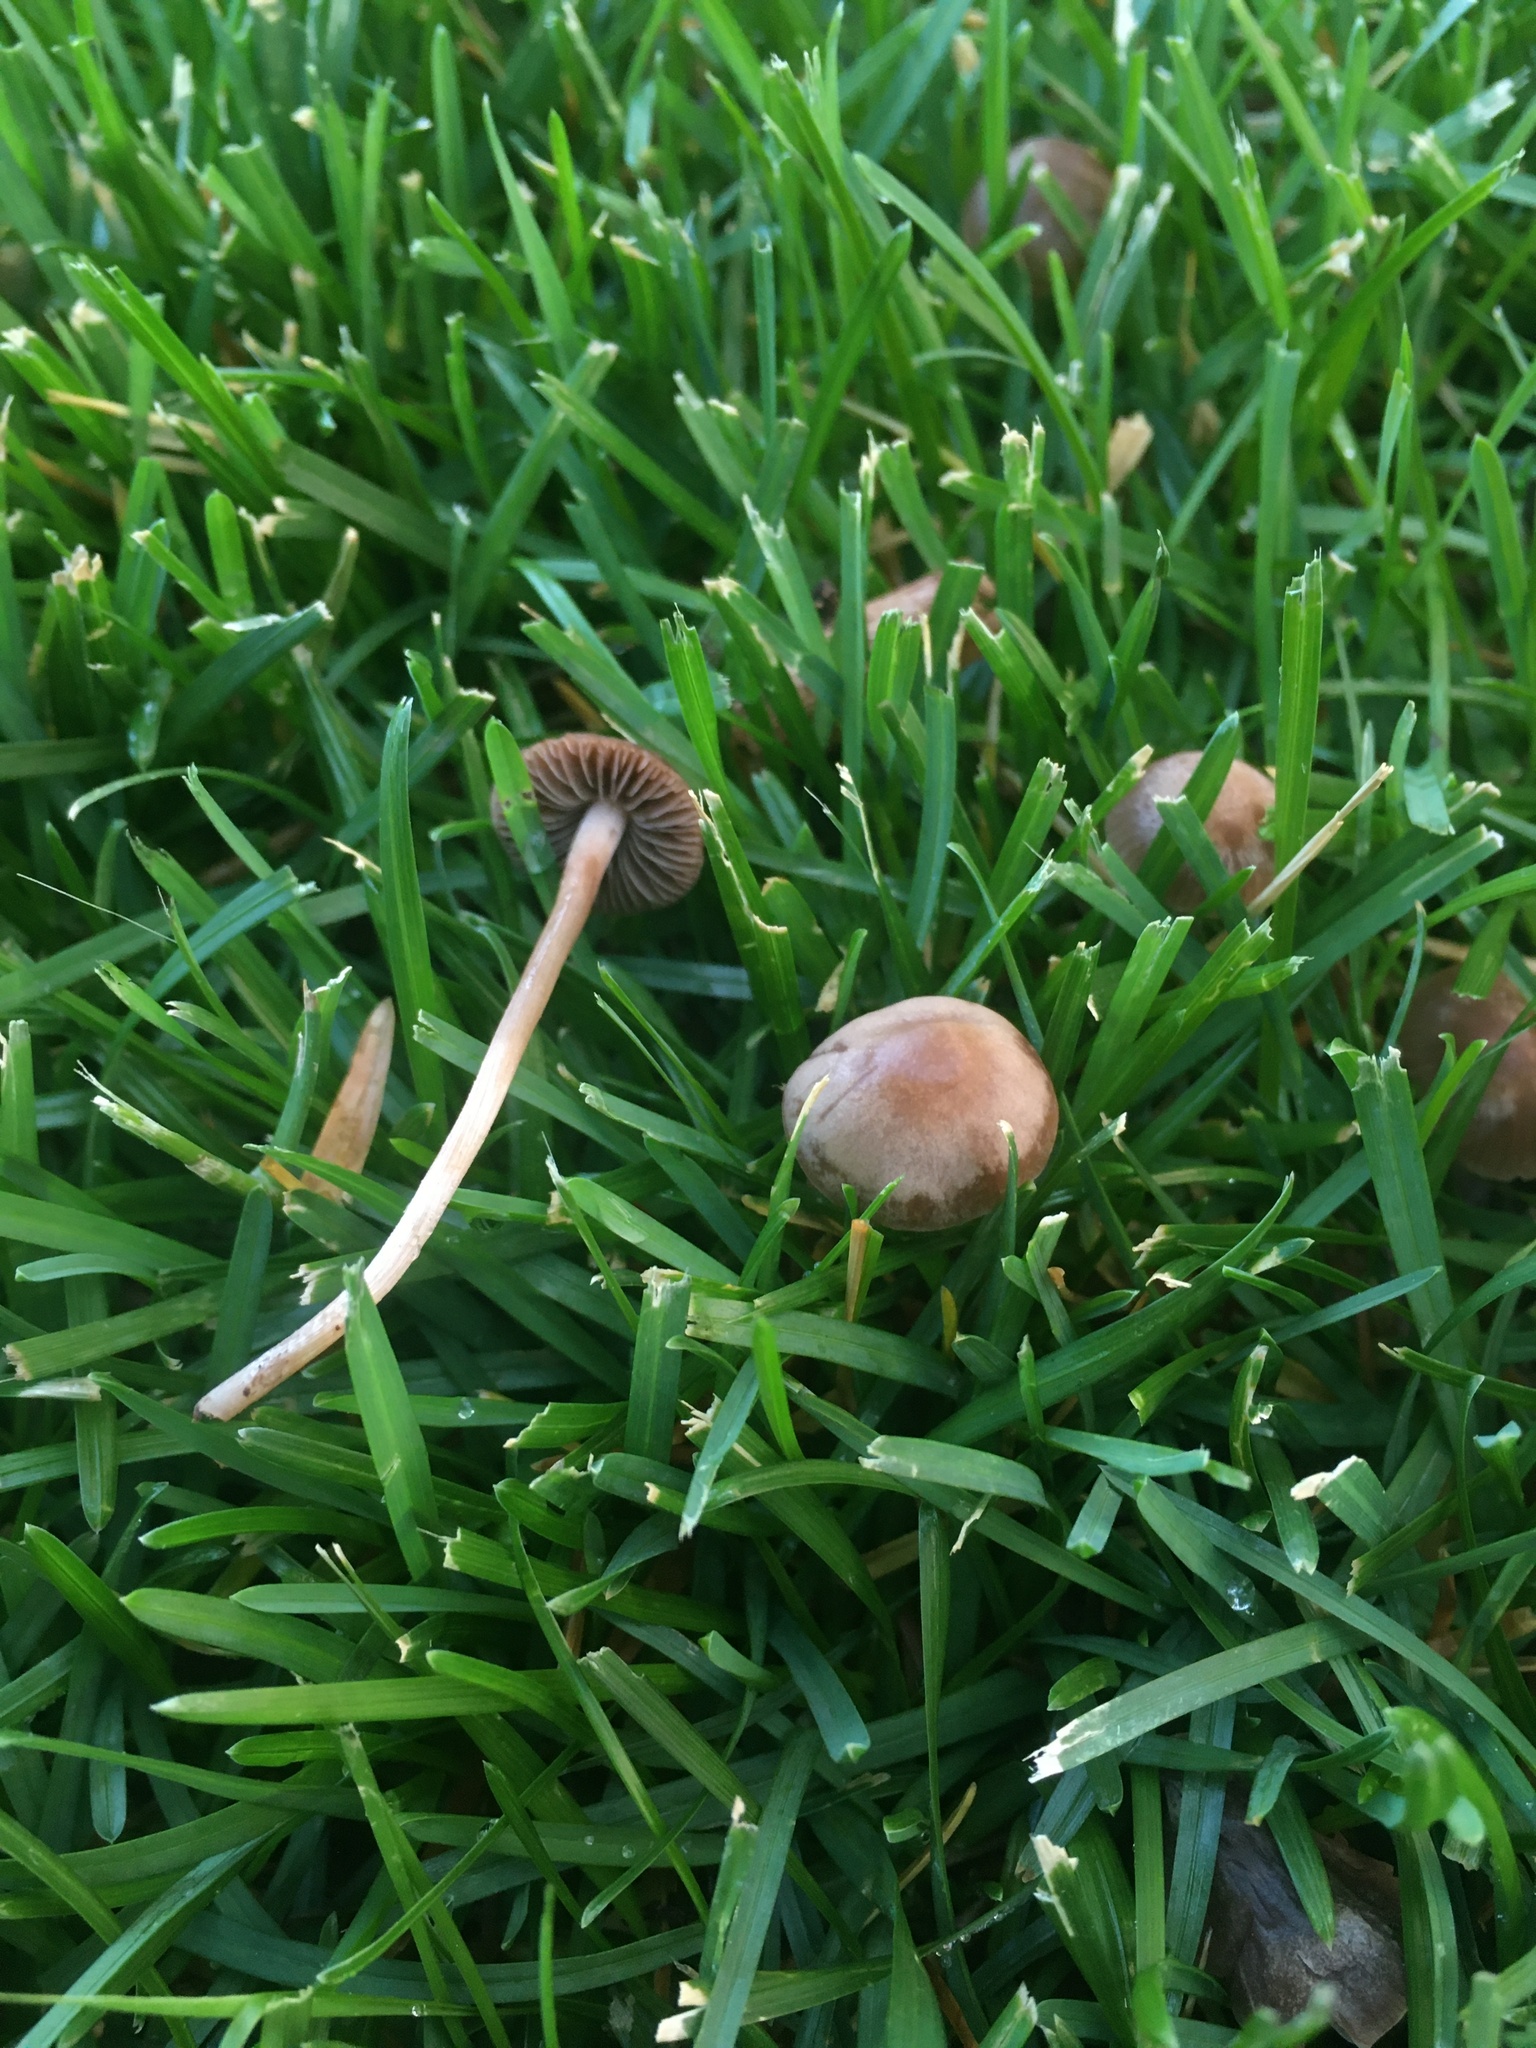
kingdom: Fungi
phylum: Basidiomycota
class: Agaricomycetes
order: Agaricales
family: Bolbitiaceae
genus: Panaeolina
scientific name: Panaeolina foenisecii
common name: Brown hay cap
